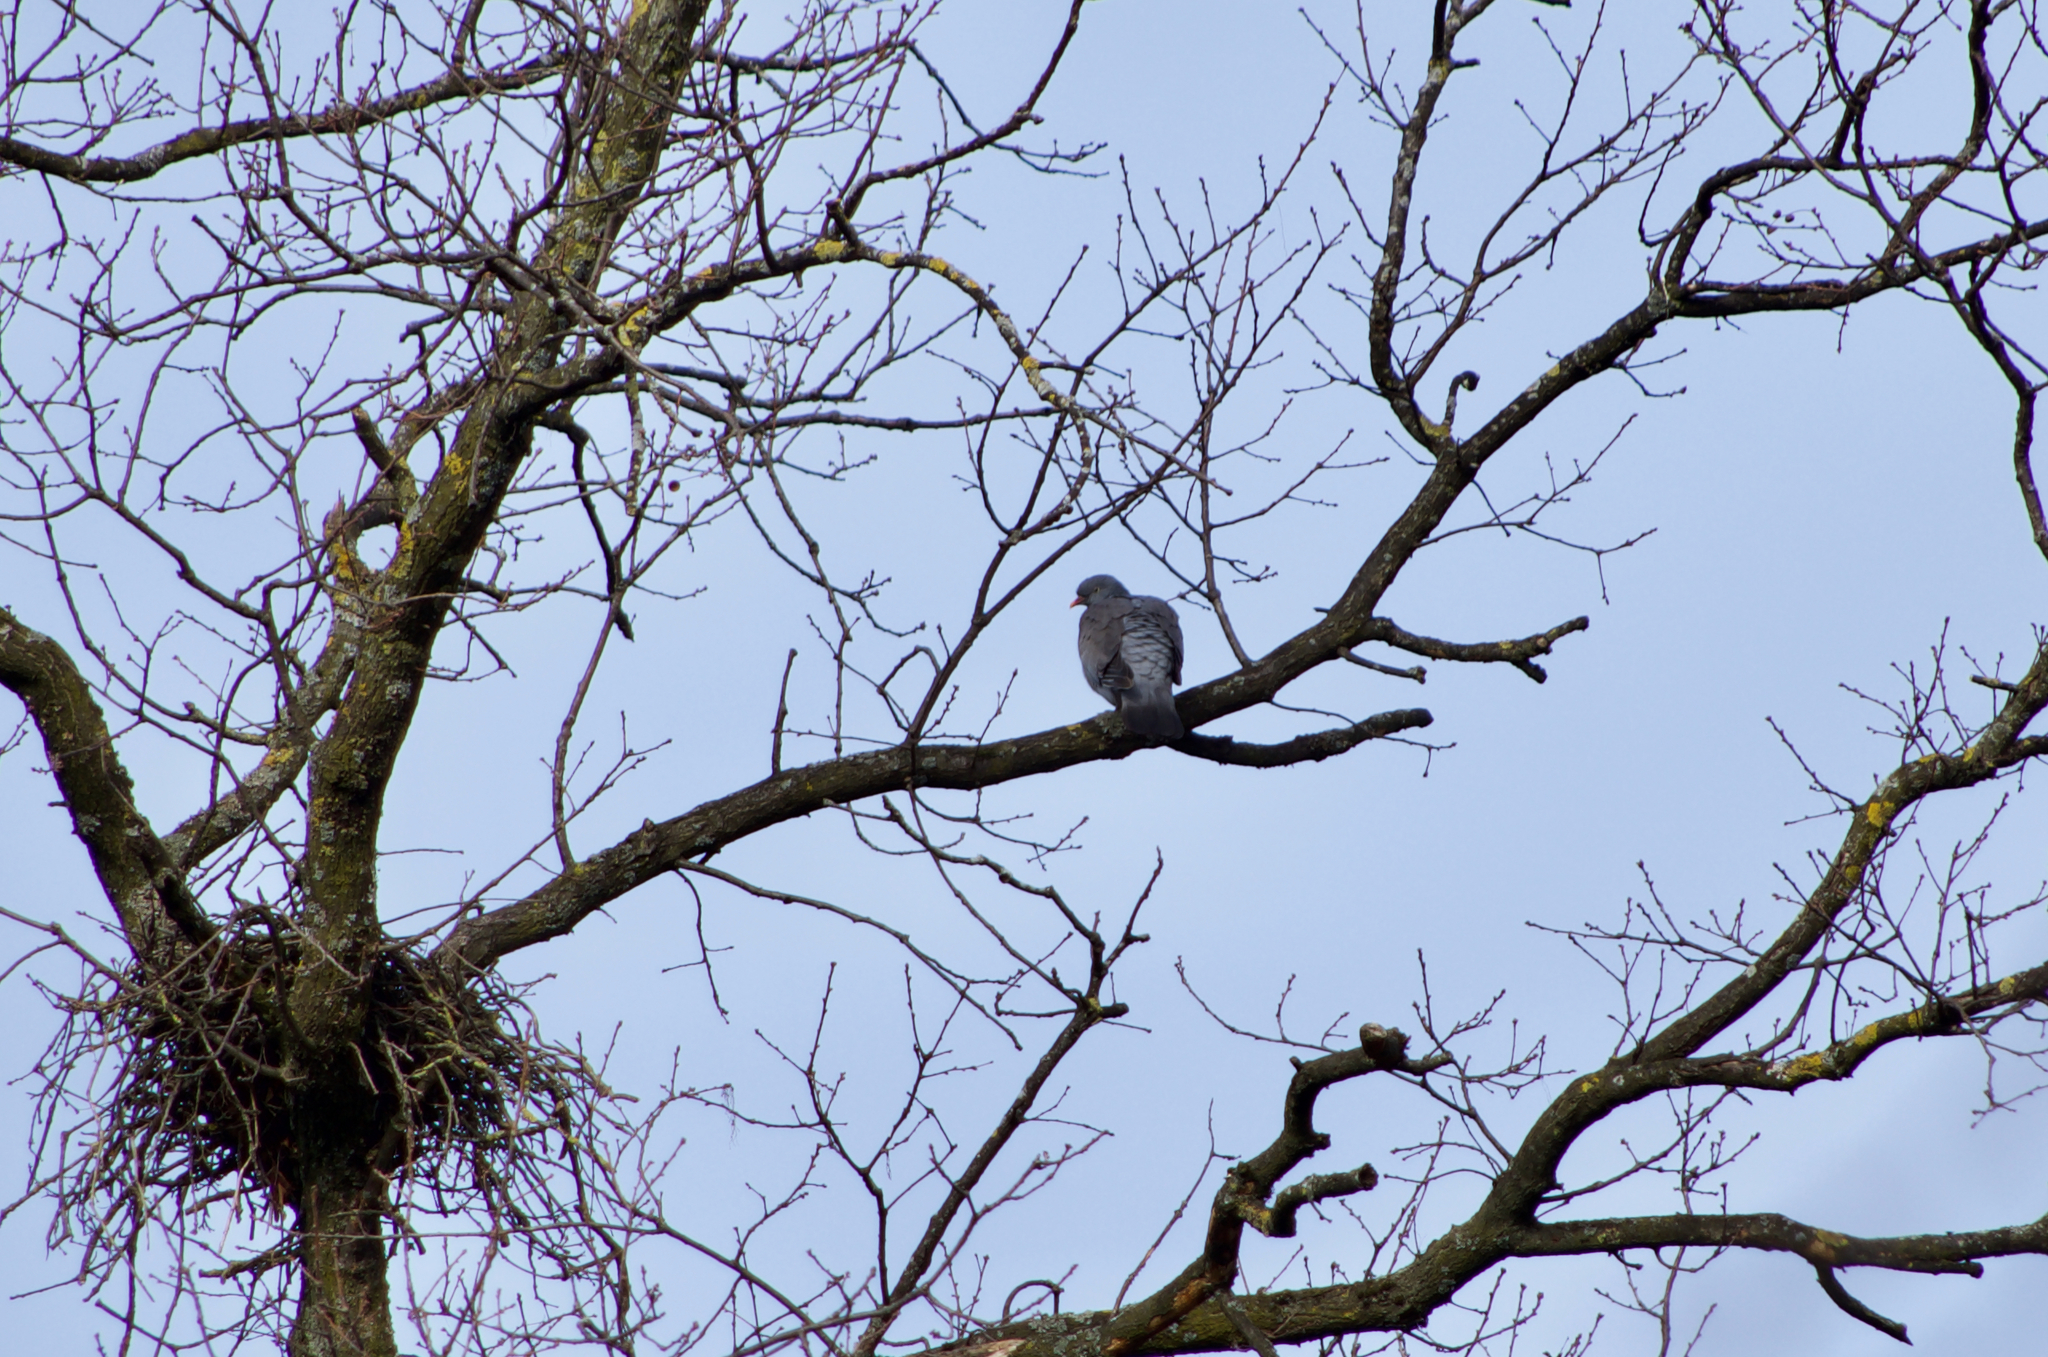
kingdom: Animalia
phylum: Chordata
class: Aves
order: Columbiformes
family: Columbidae
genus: Columba
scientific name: Columba palumbus
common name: Common wood pigeon
